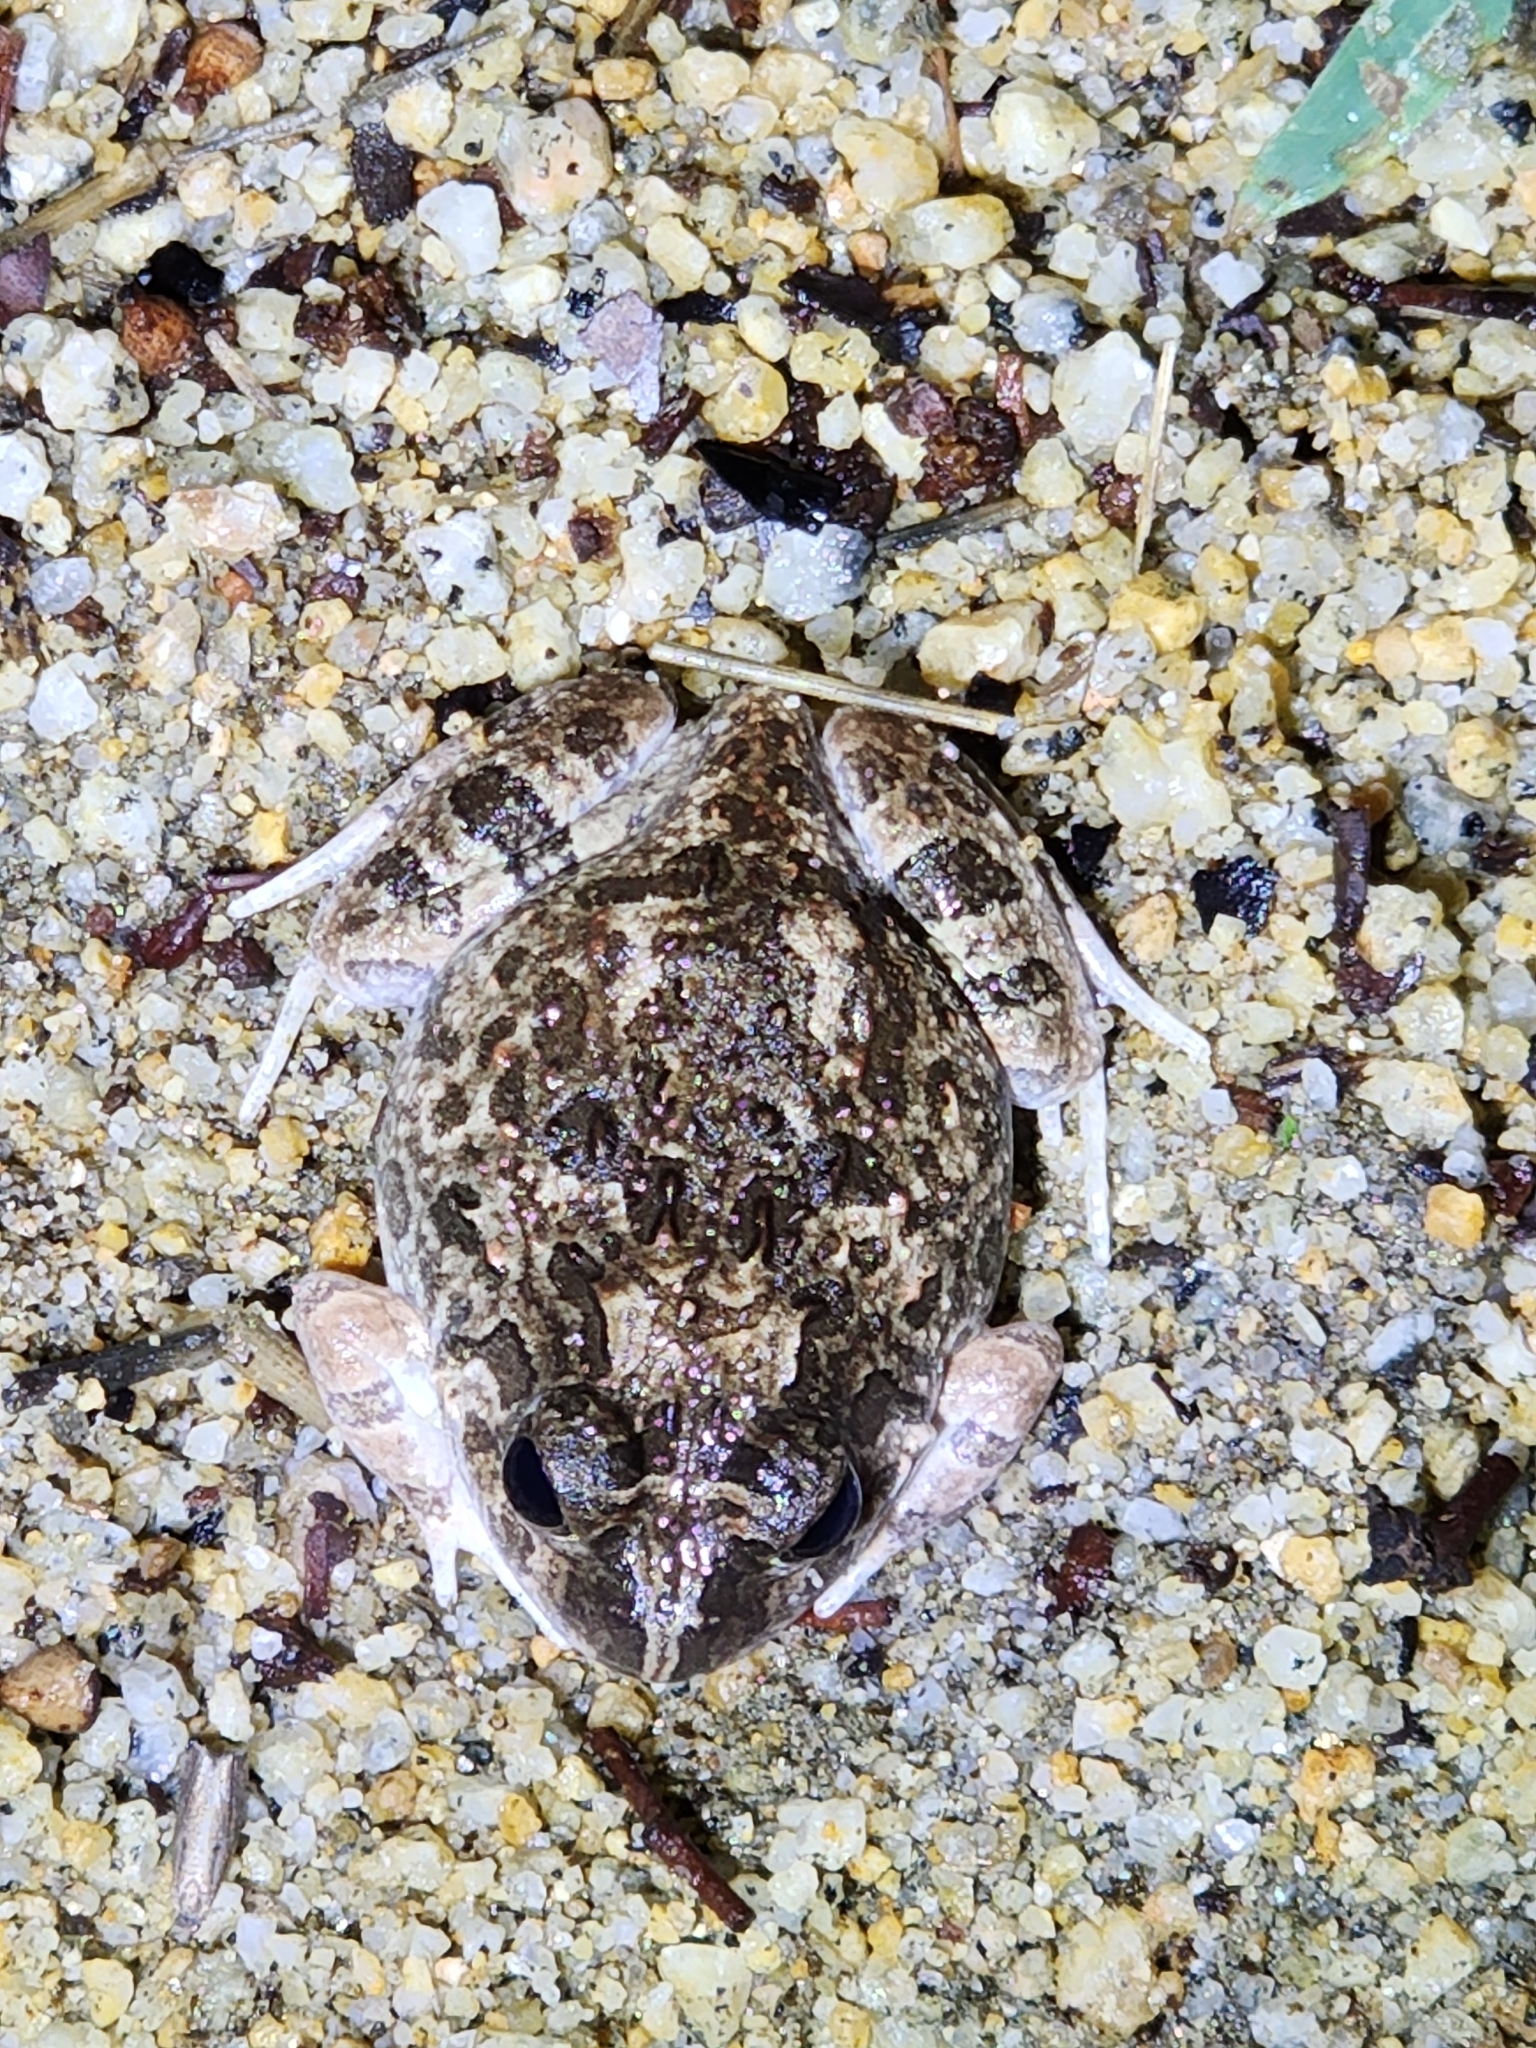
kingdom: Animalia
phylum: Chordata
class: Amphibia
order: Anura
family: Limnodynastidae
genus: Platyplectrum
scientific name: Platyplectrum ornatum
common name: Ornate burrowing frog
